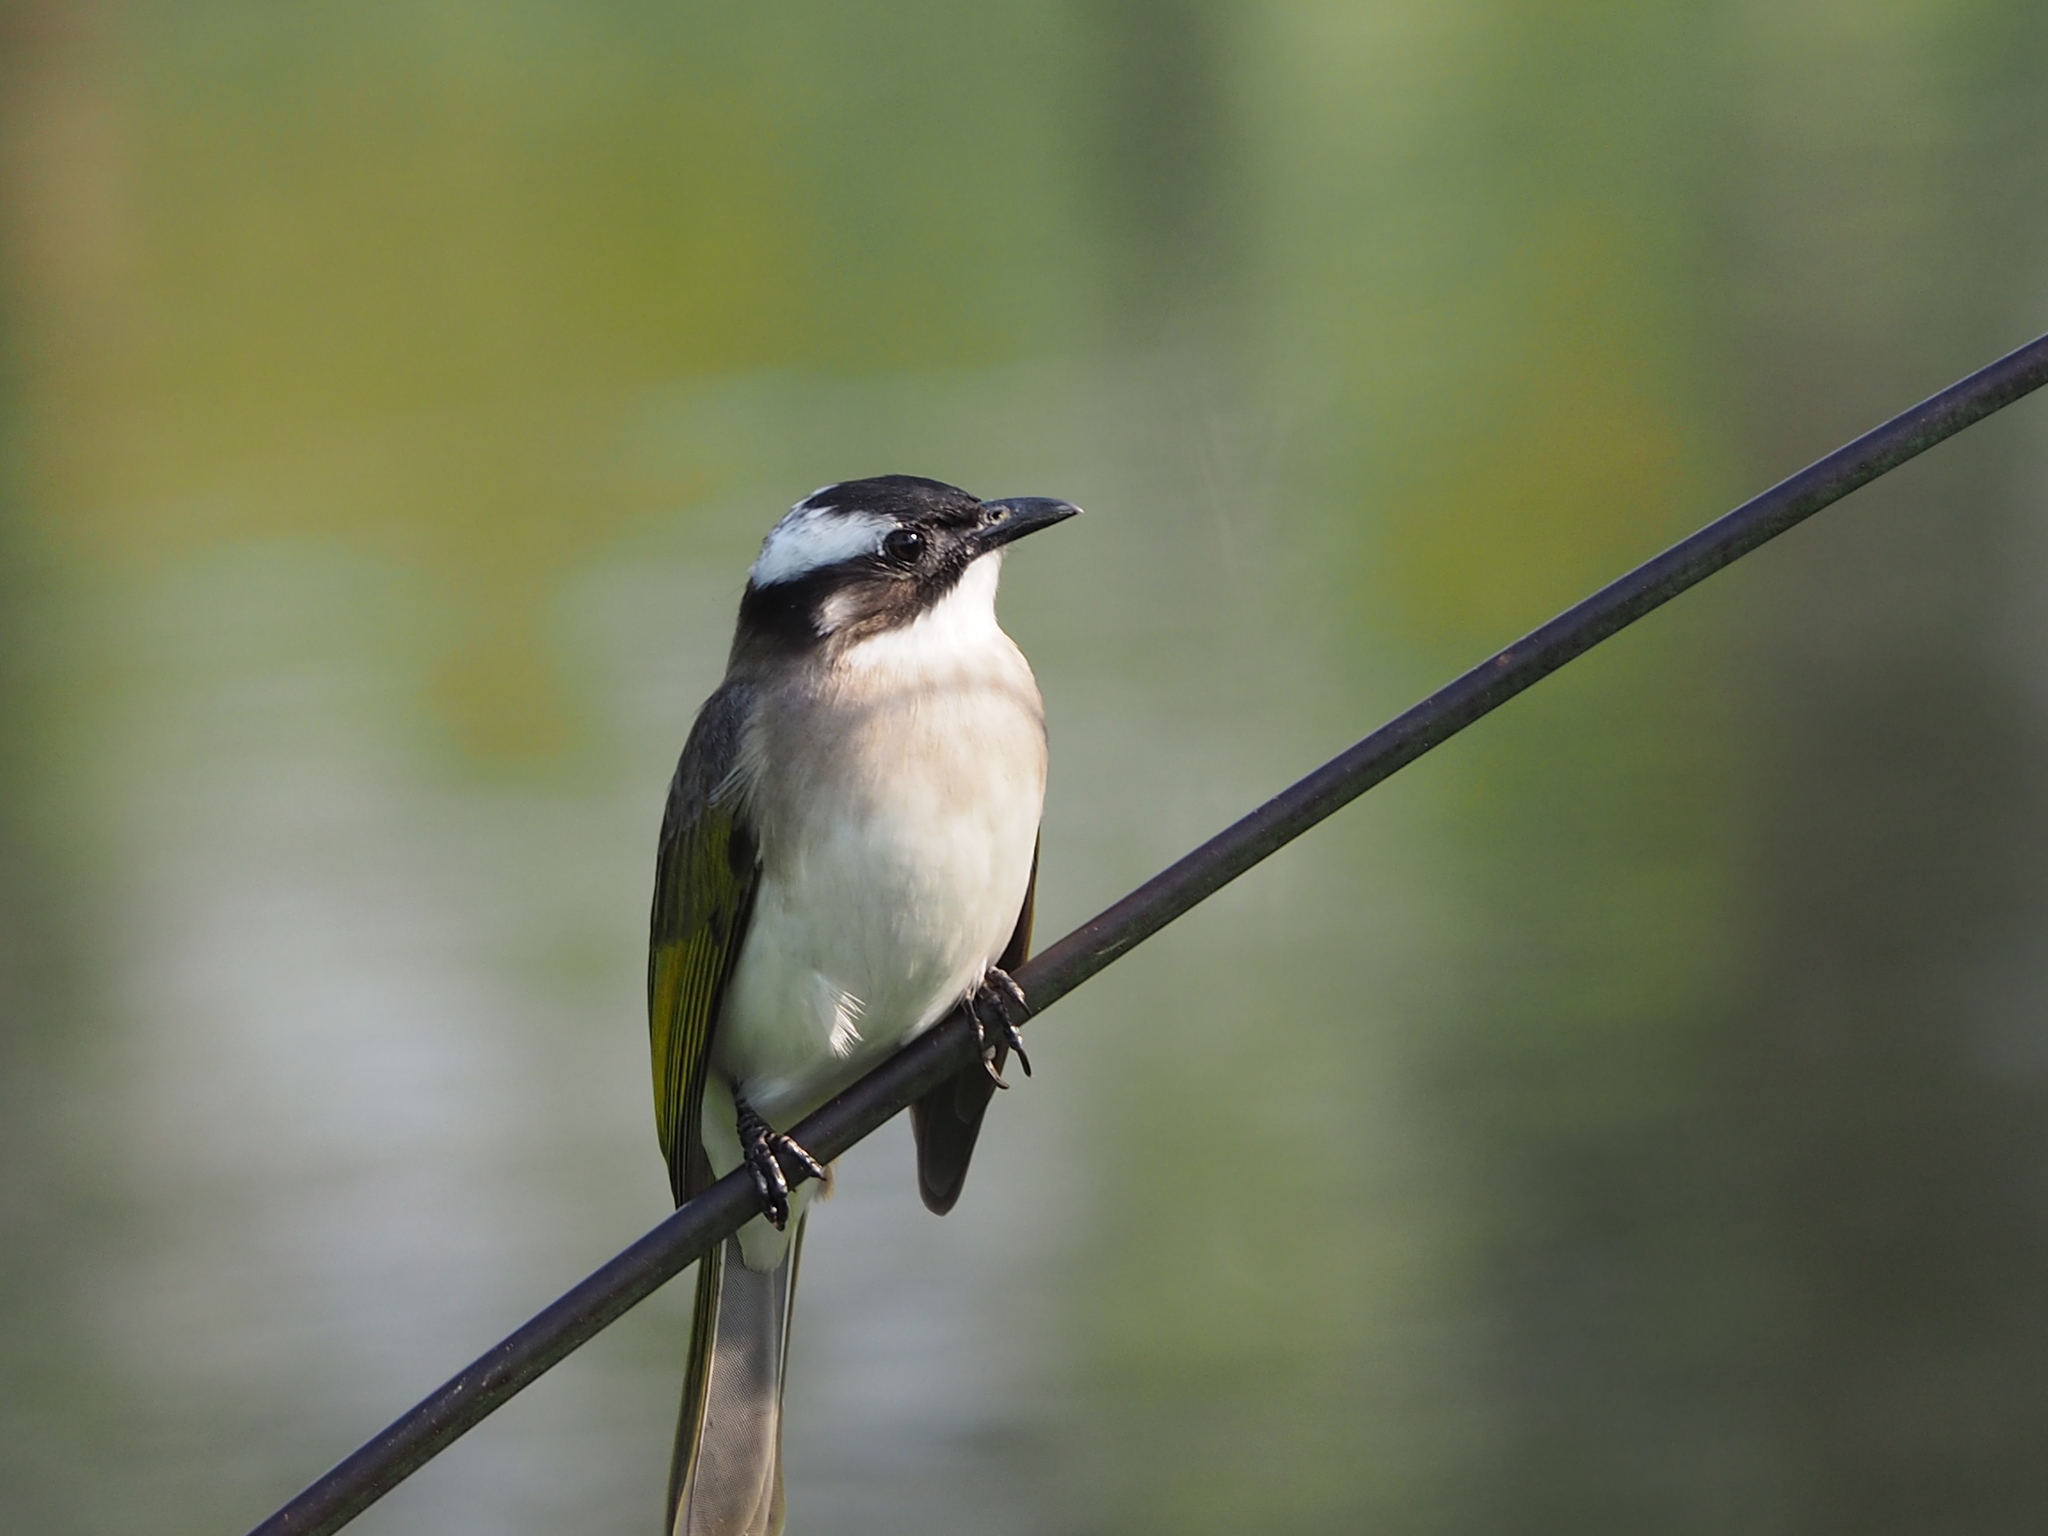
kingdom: Animalia
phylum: Chordata
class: Aves
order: Passeriformes
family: Pycnonotidae
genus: Pycnonotus
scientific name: Pycnonotus sinensis
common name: Light-vented bulbul
